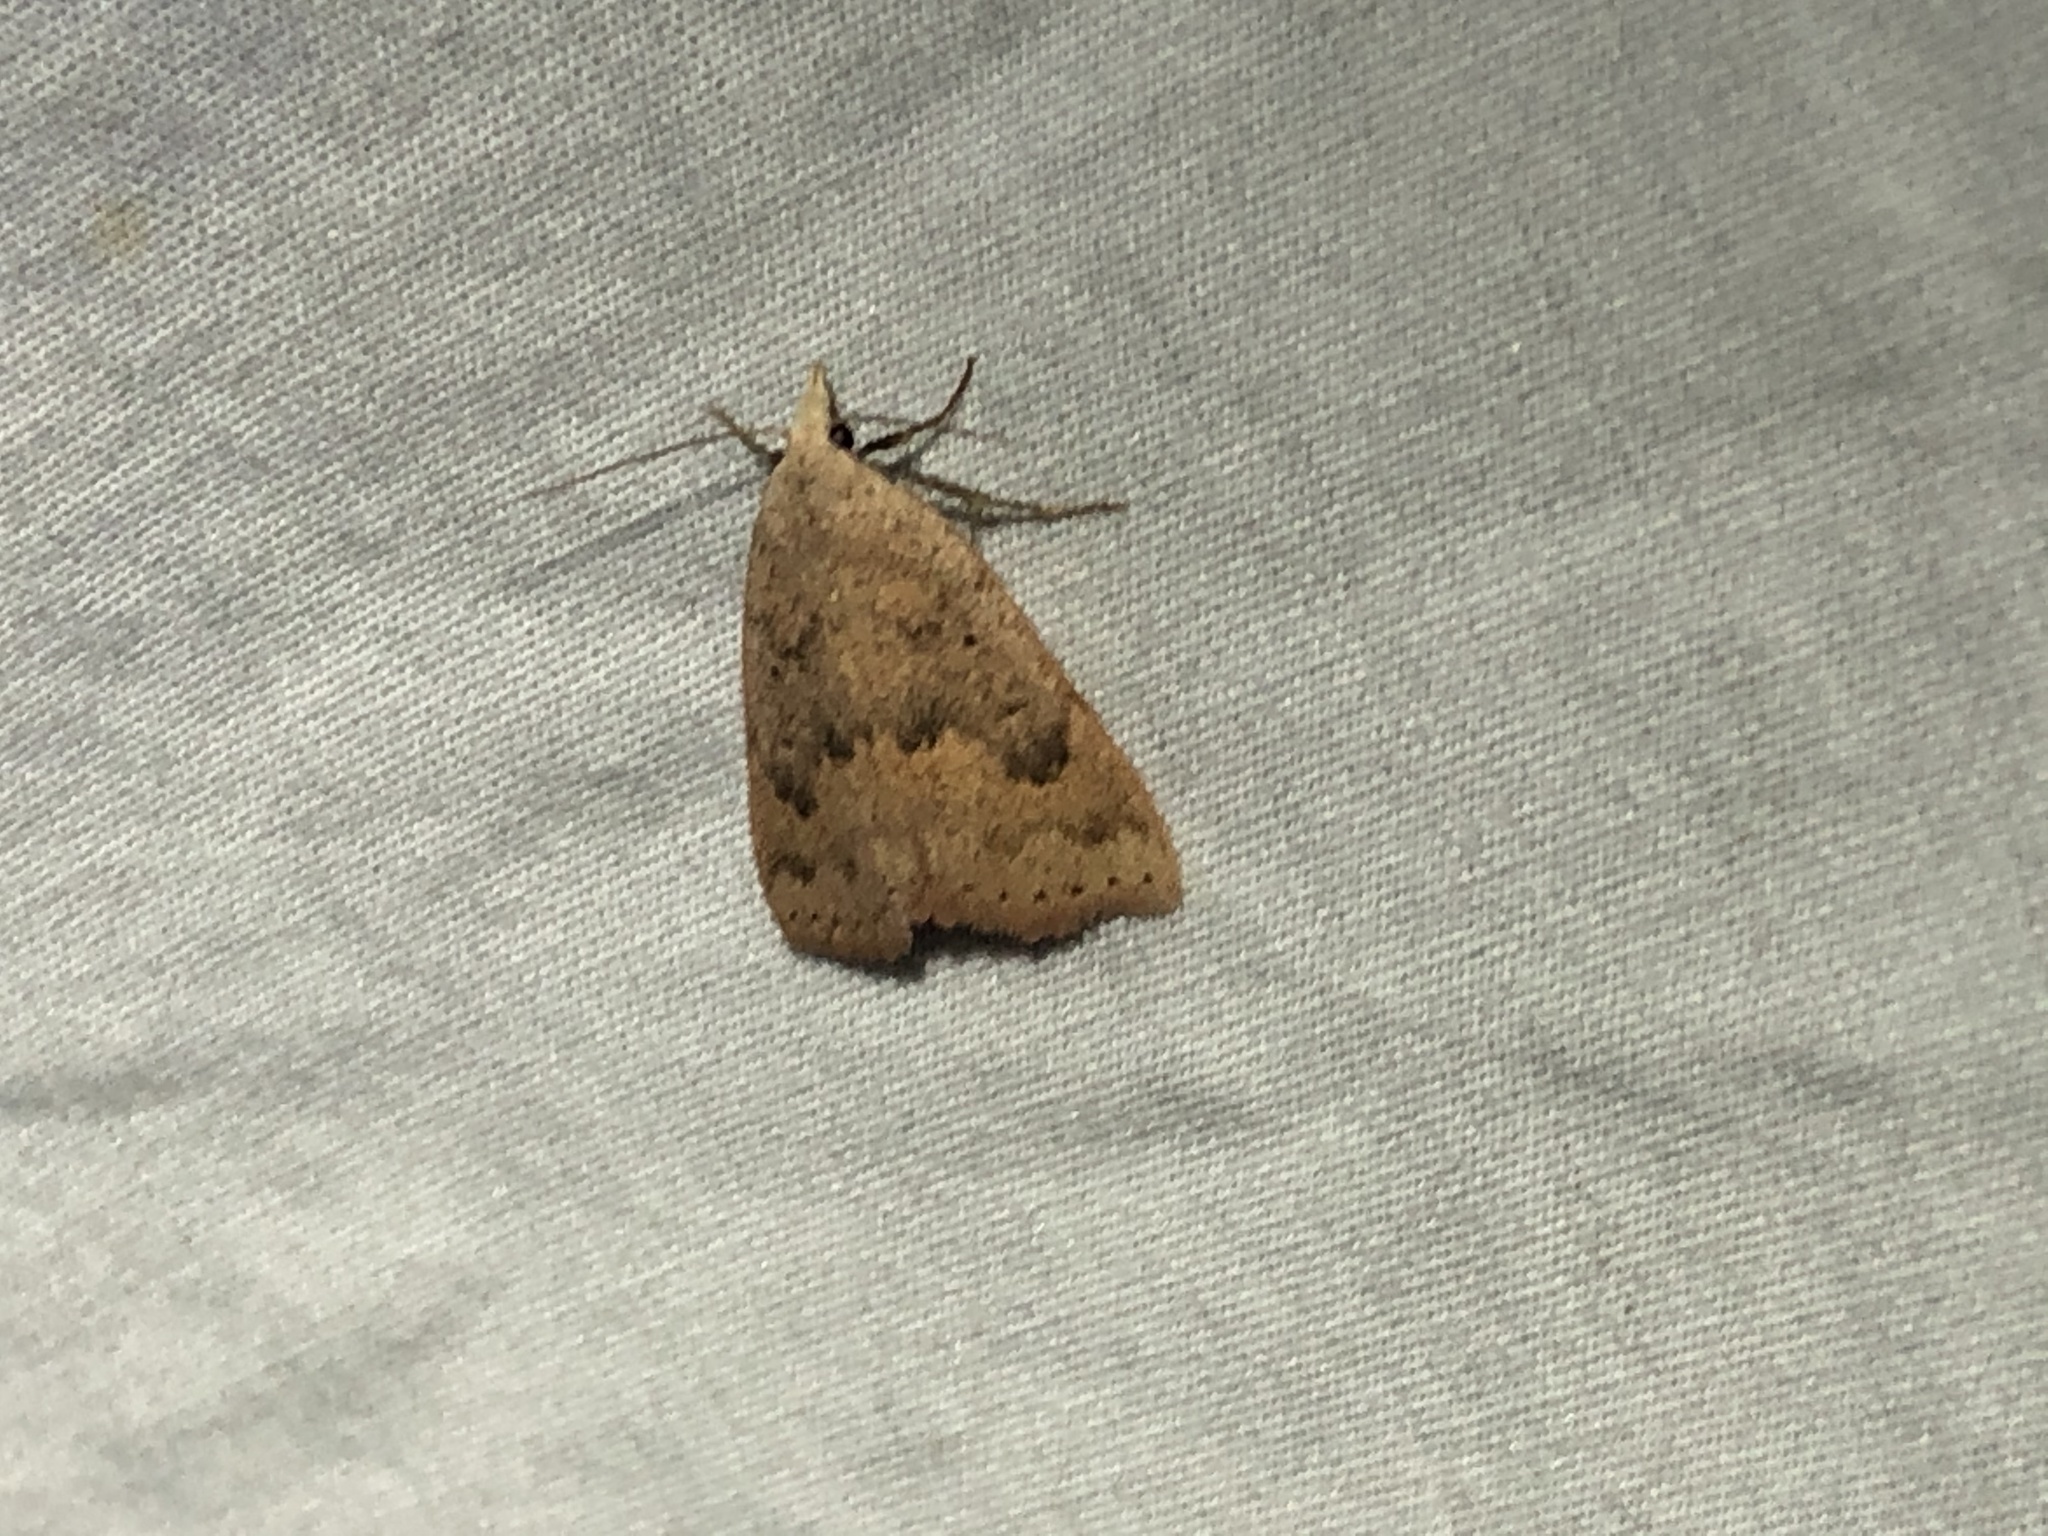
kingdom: Animalia
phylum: Arthropoda
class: Insecta
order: Lepidoptera
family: Erebidae
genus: Pseudorgyia
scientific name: Pseudorgyia russula
